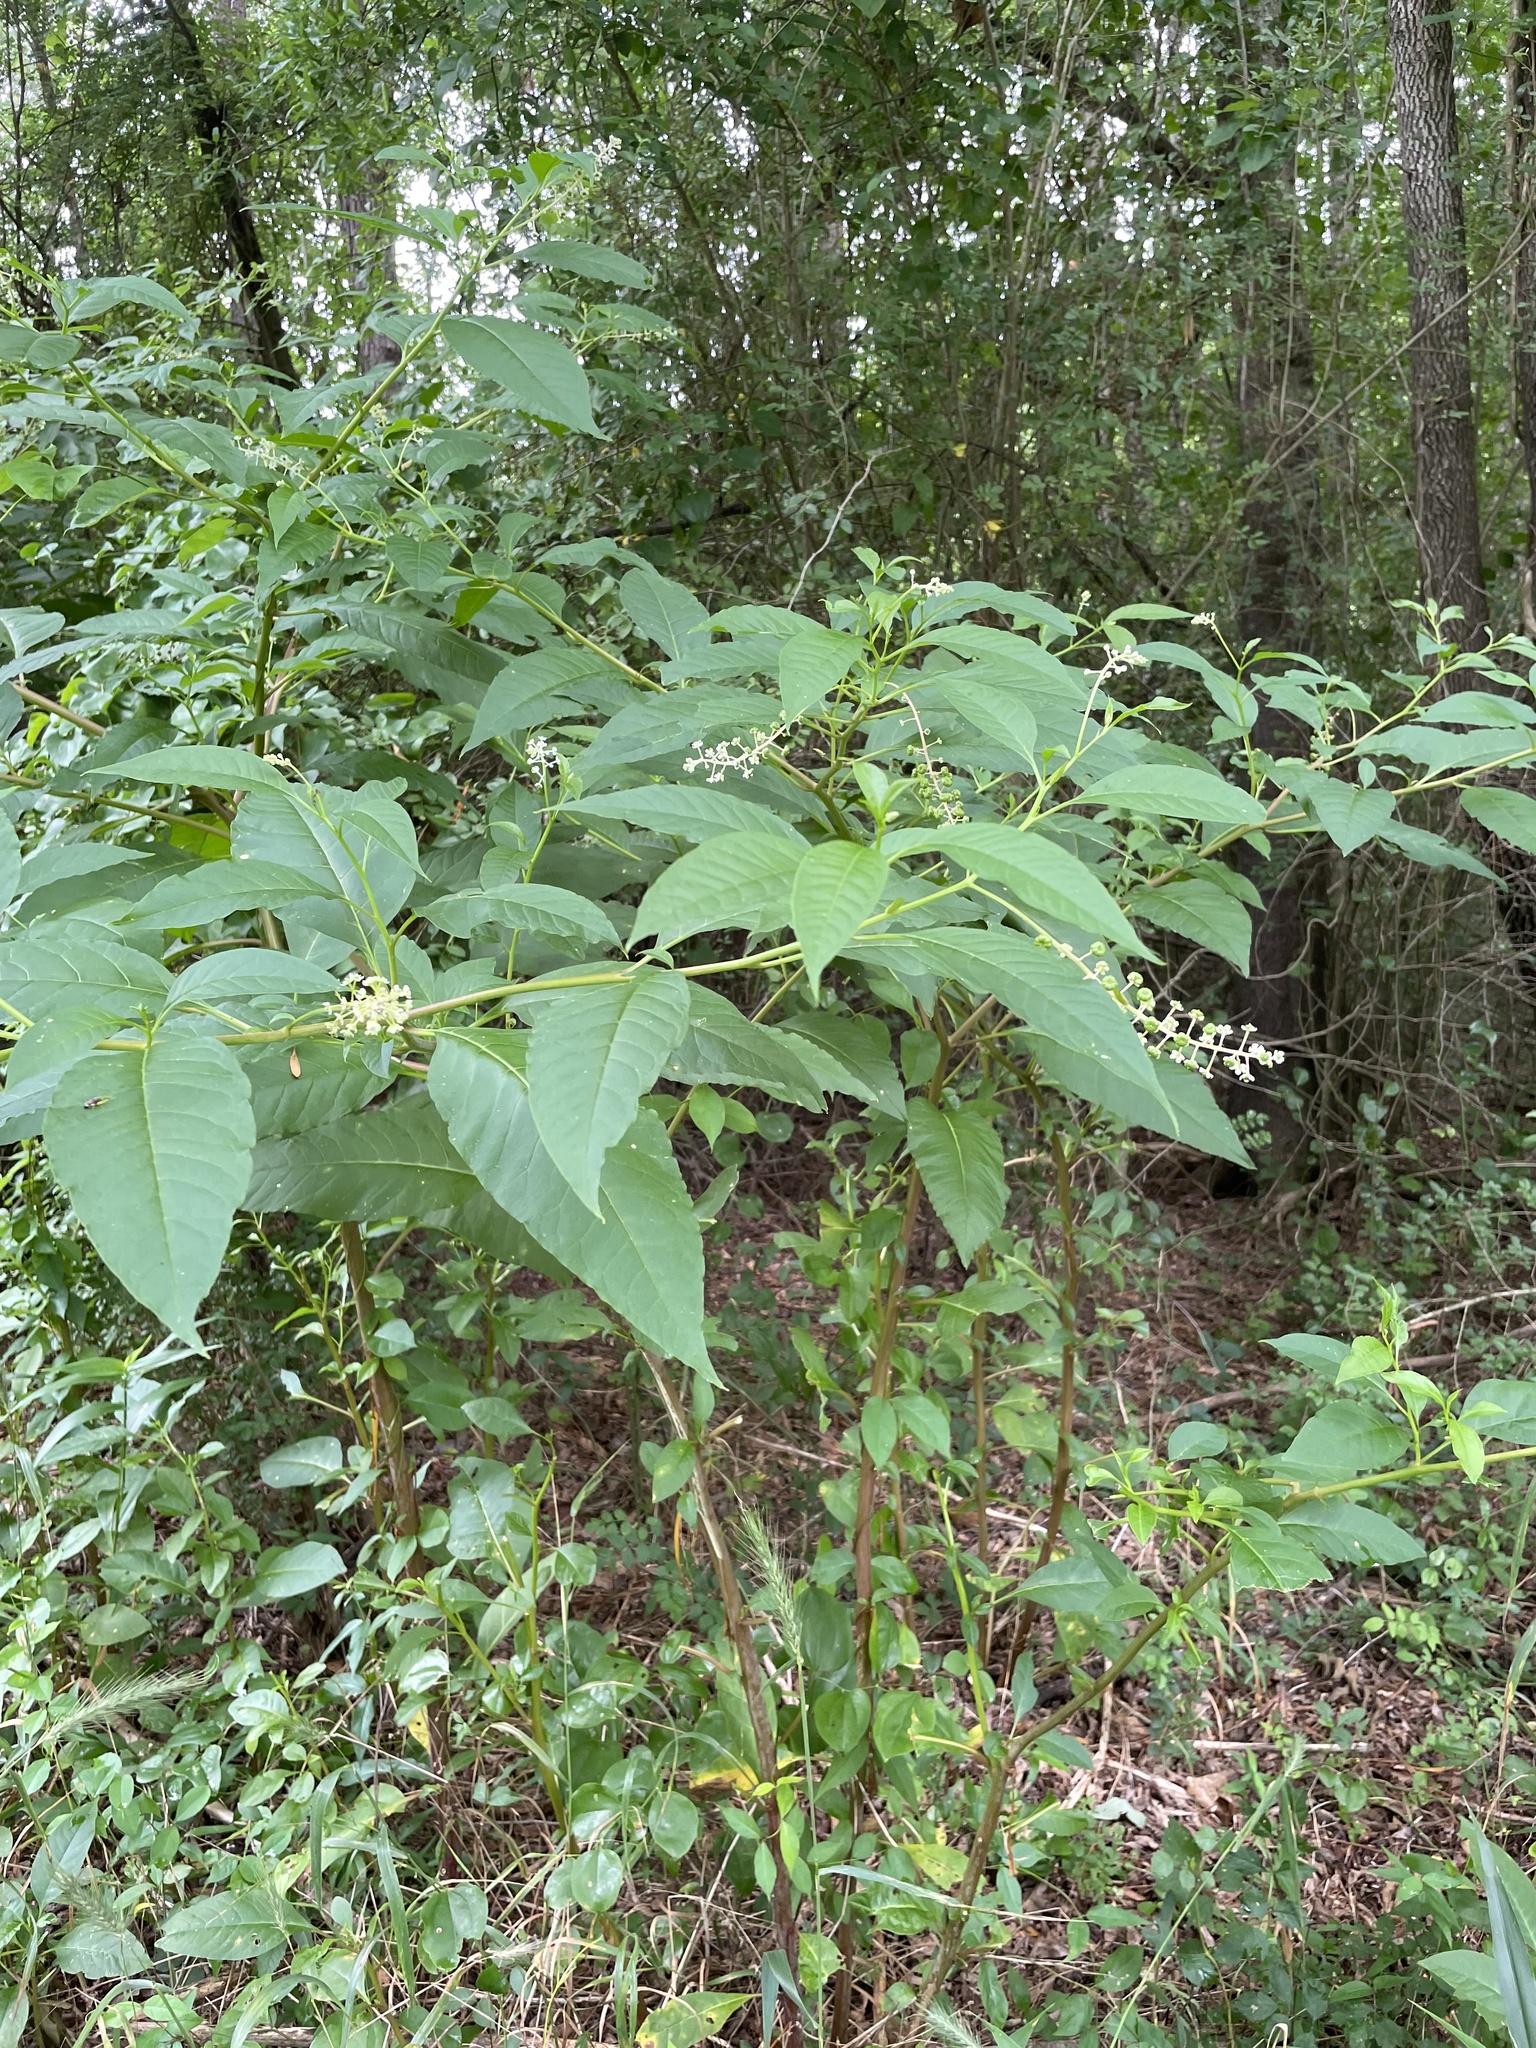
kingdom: Plantae
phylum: Tracheophyta
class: Magnoliopsida
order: Caryophyllales
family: Phytolaccaceae
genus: Phytolacca
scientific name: Phytolacca americana
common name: American pokeweed
